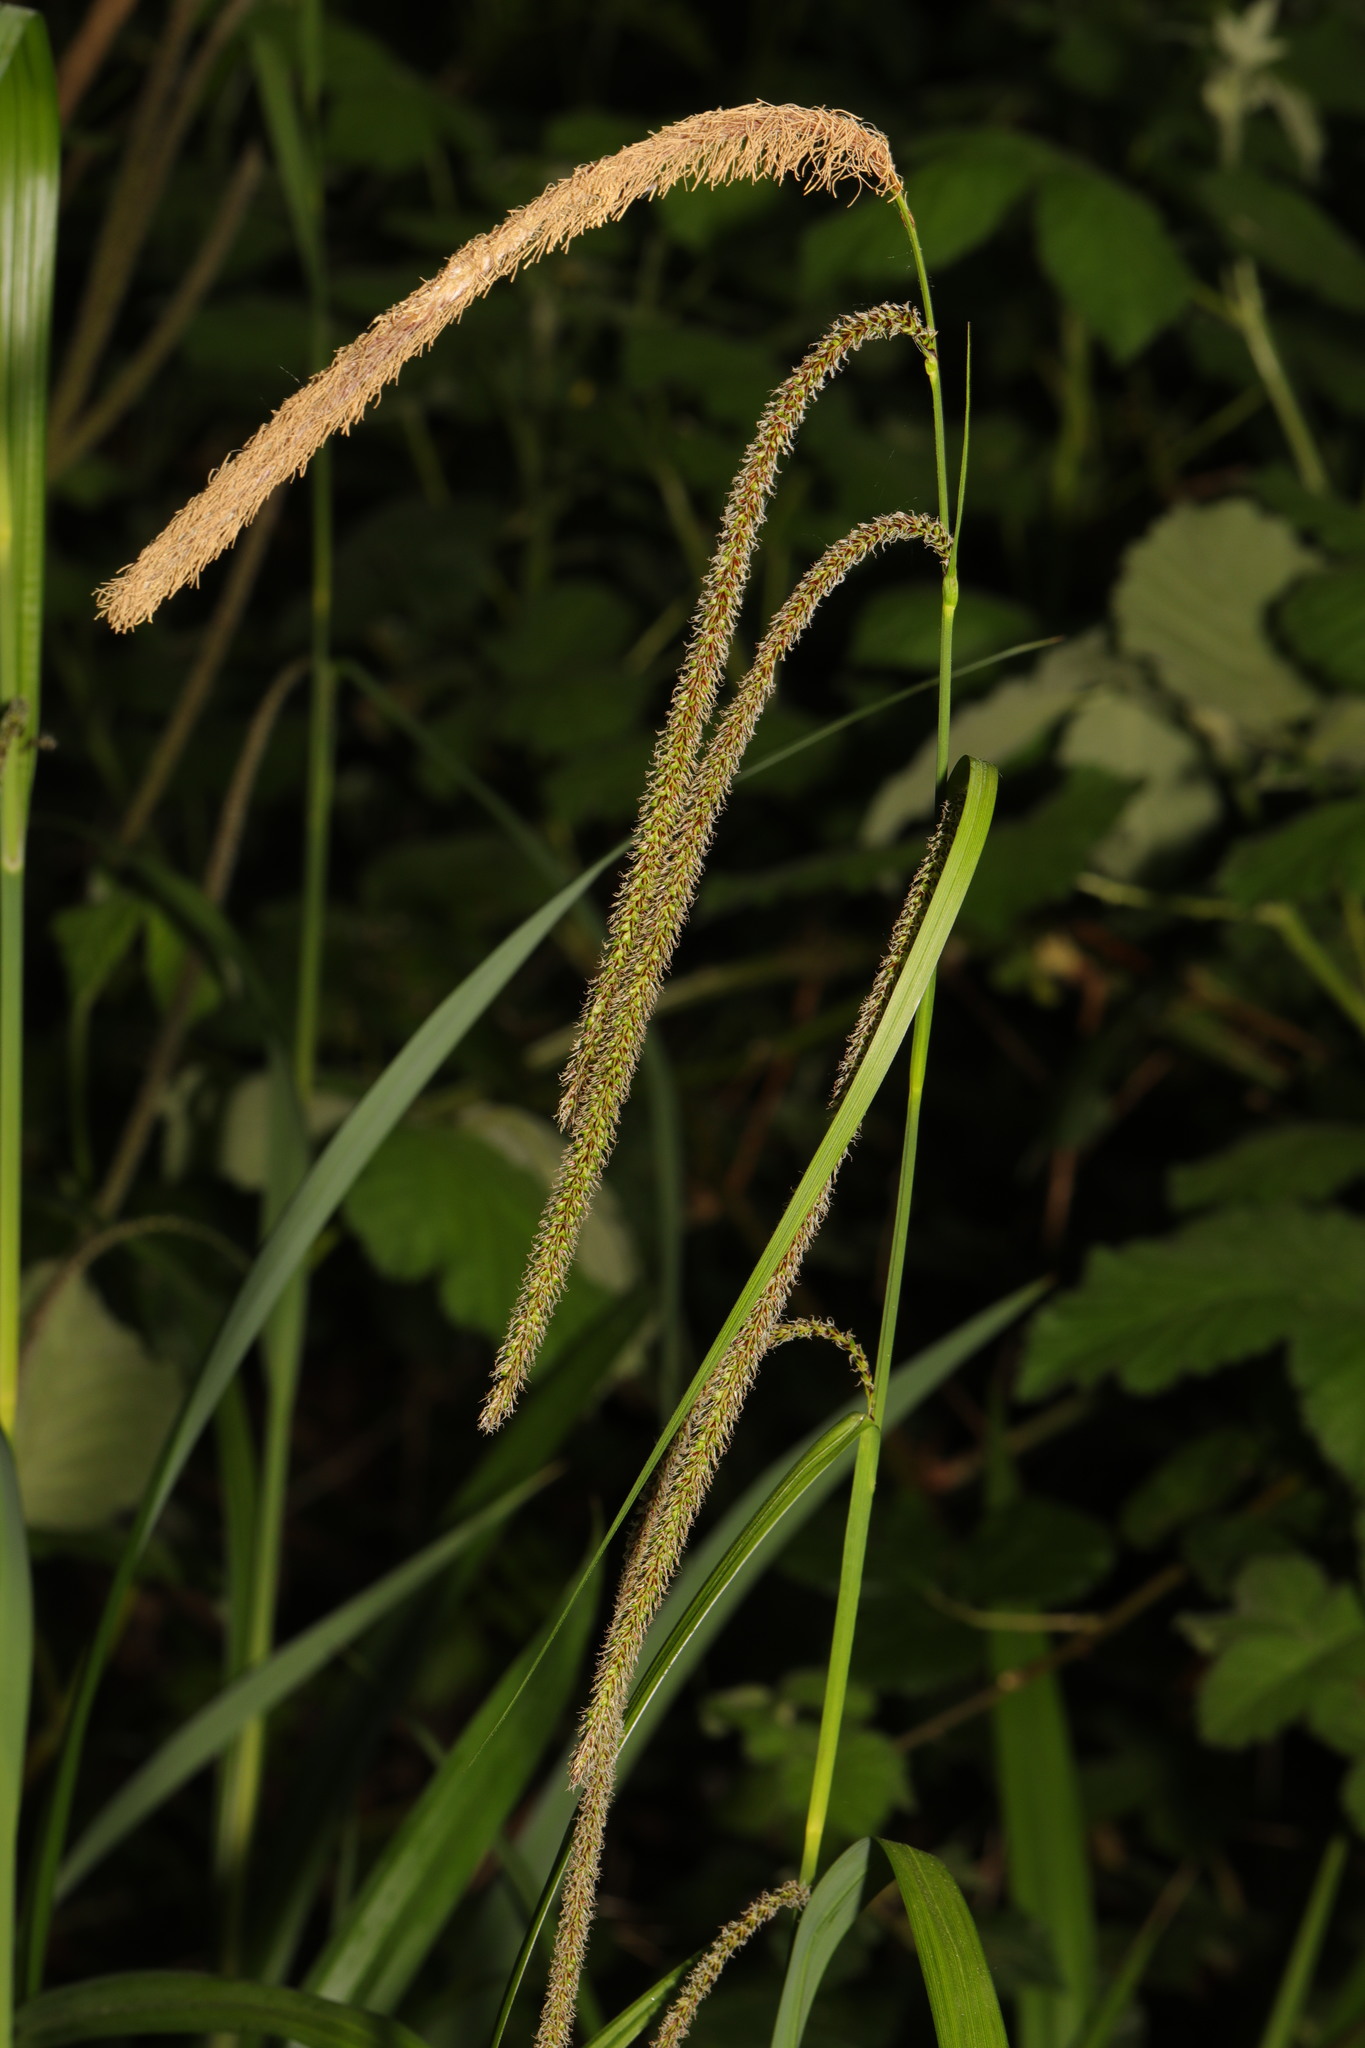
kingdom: Plantae
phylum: Tracheophyta
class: Liliopsida
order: Poales
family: Cyperaceae
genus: Carex
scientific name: Carex pendula
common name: Pendulous sedge
